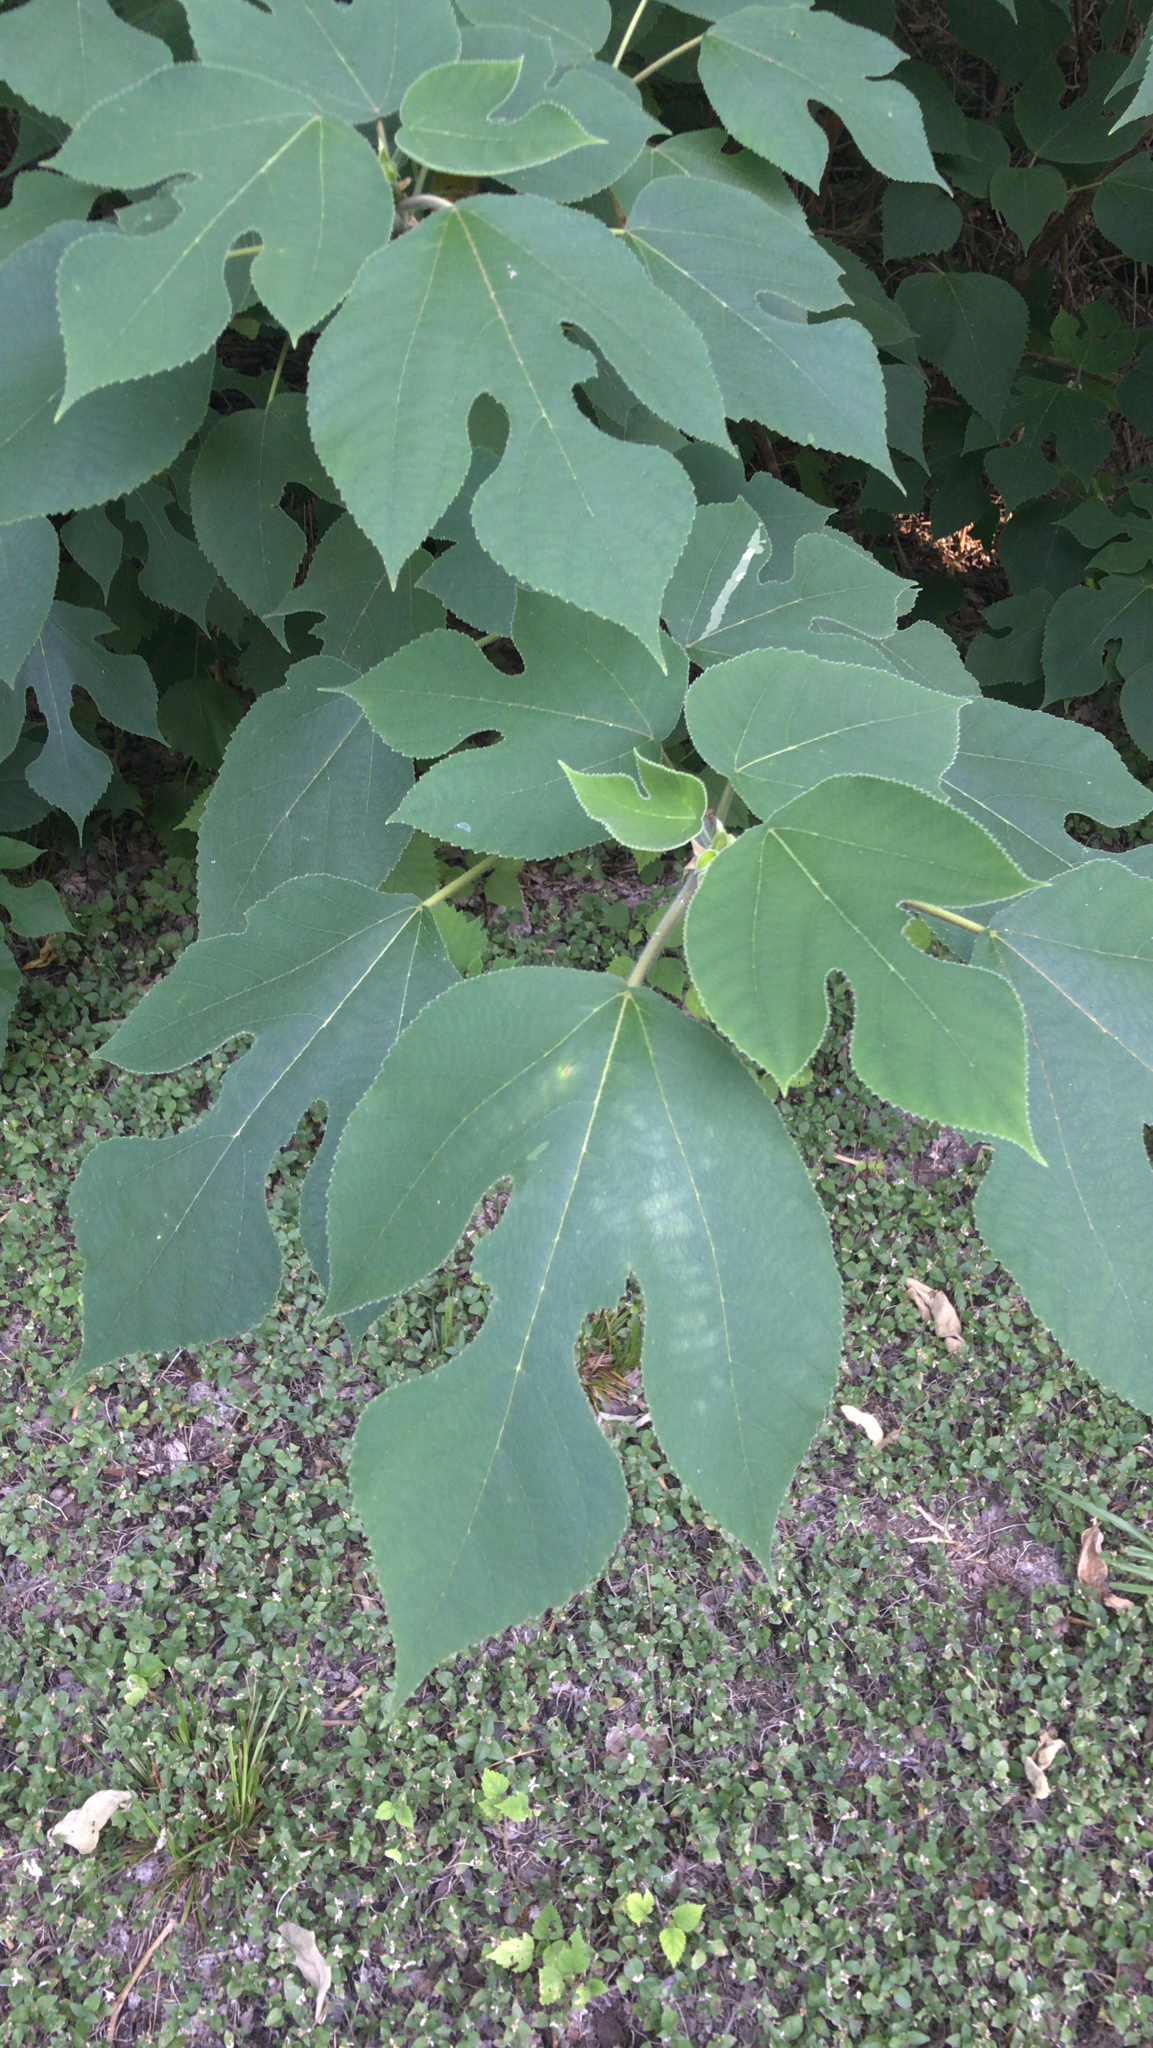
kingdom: Plantae
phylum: Tracheophyta
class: Magnoliopsida
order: Rosales
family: Moraceae
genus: Broussonetia
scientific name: Broussonetia papyrifera
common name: Paper mulberry
